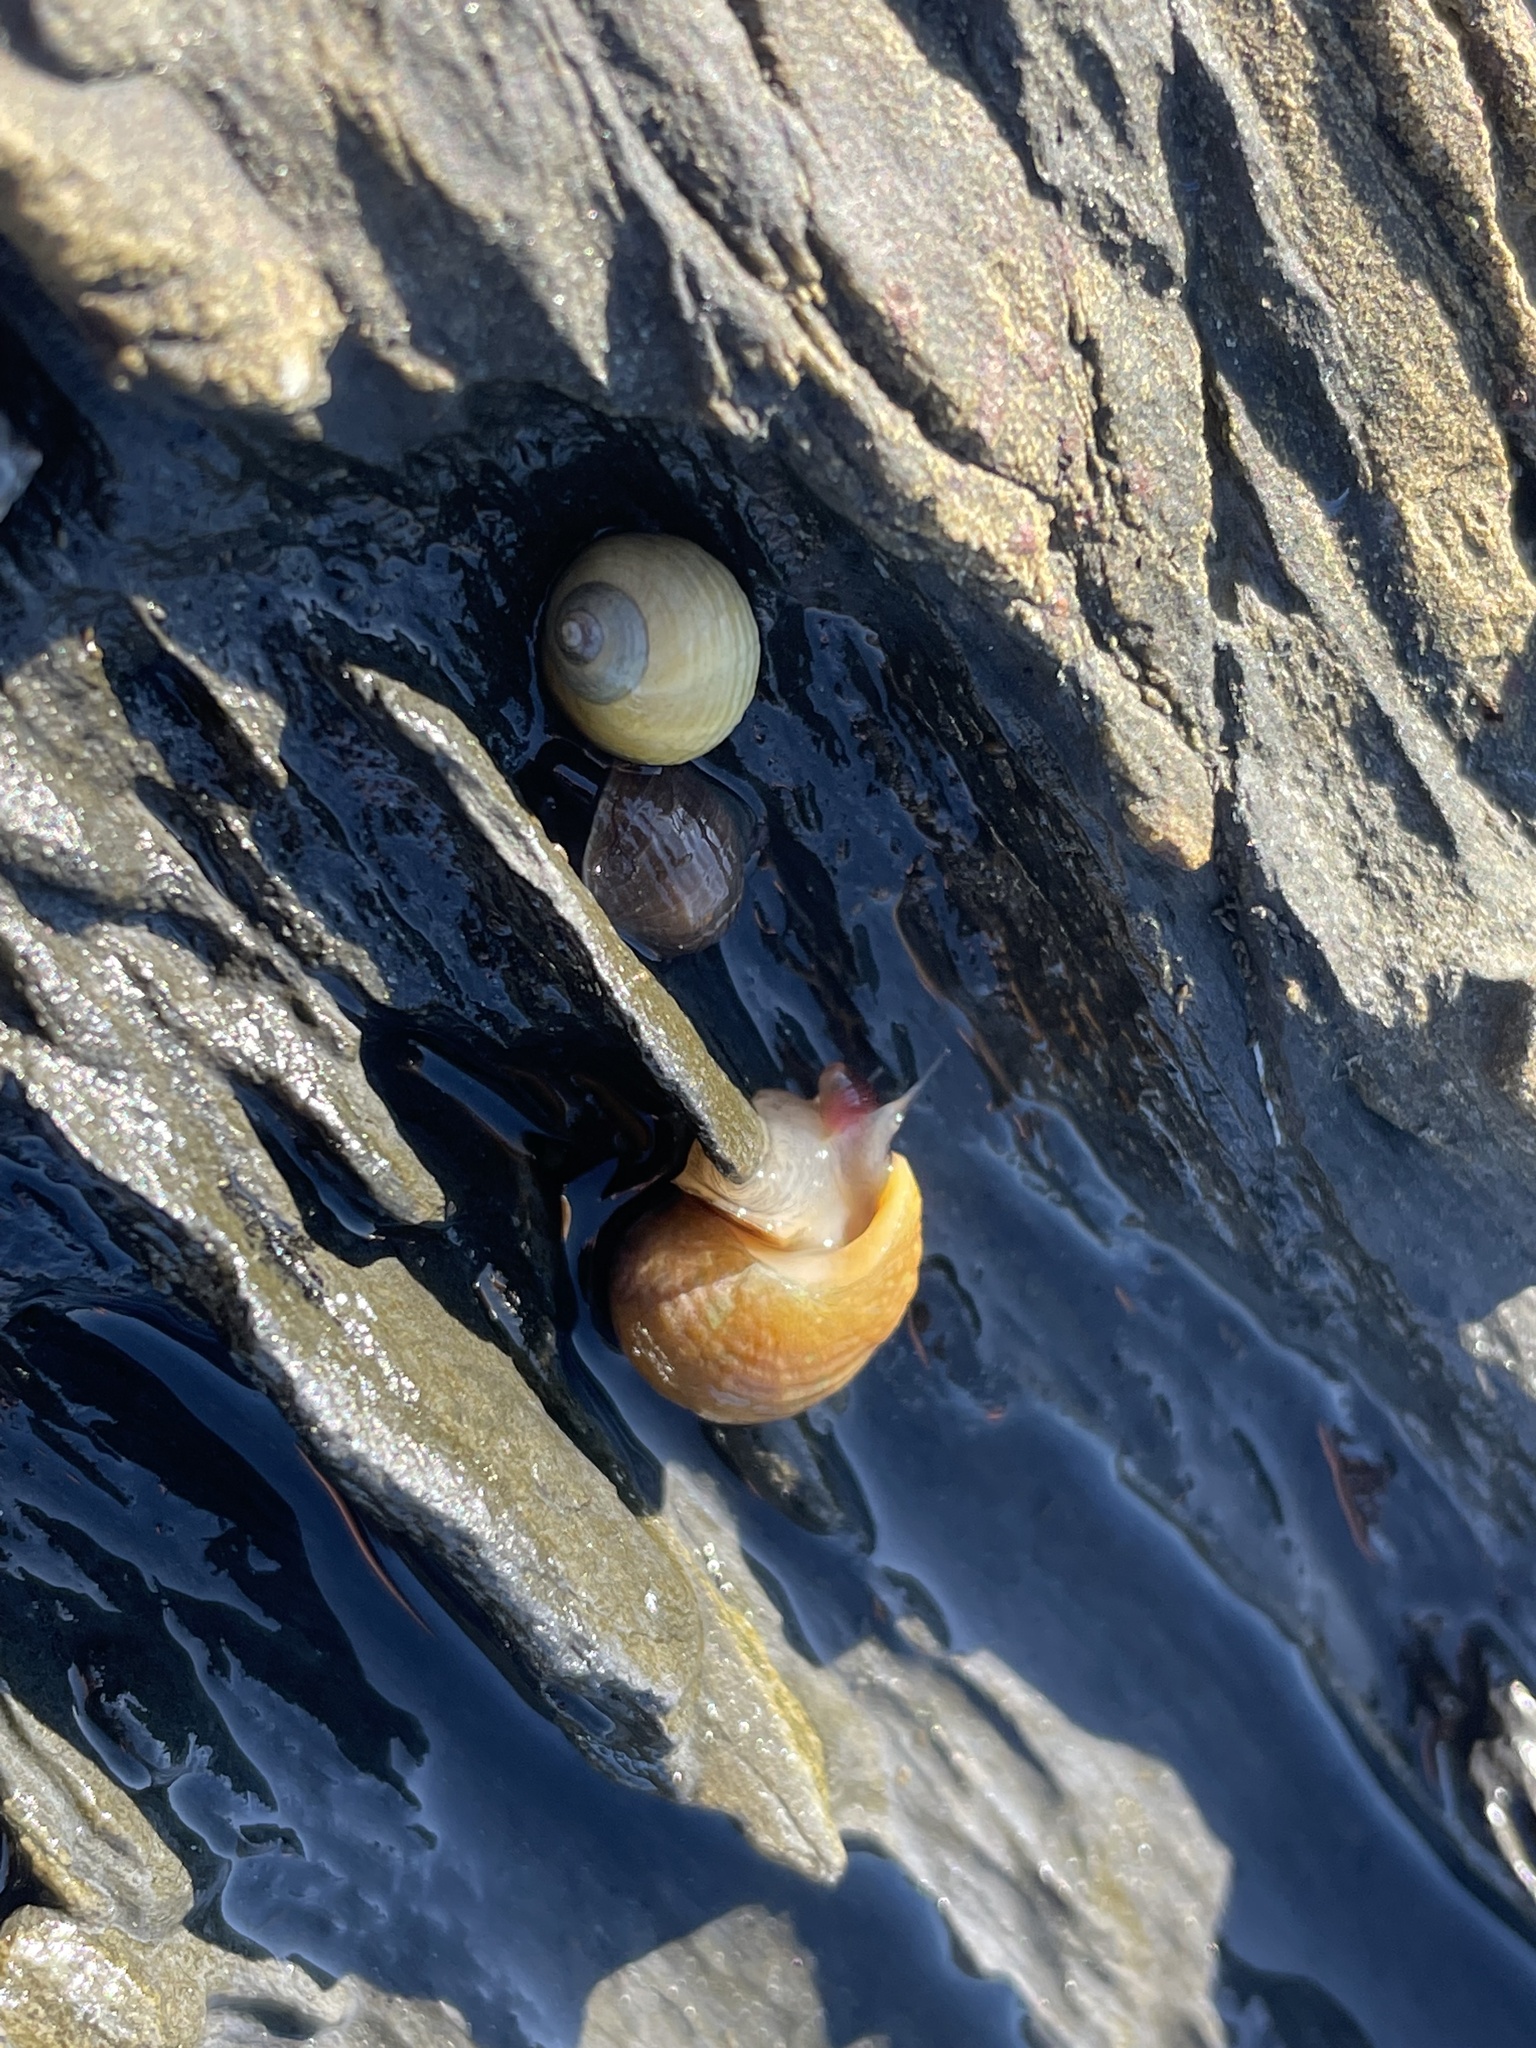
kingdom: Animalia
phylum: Mollusca
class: Gastropoda
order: Littorinimorpha
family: Littorinidae
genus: Littorina
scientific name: Littorina obtusata
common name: Flat periwinkle
